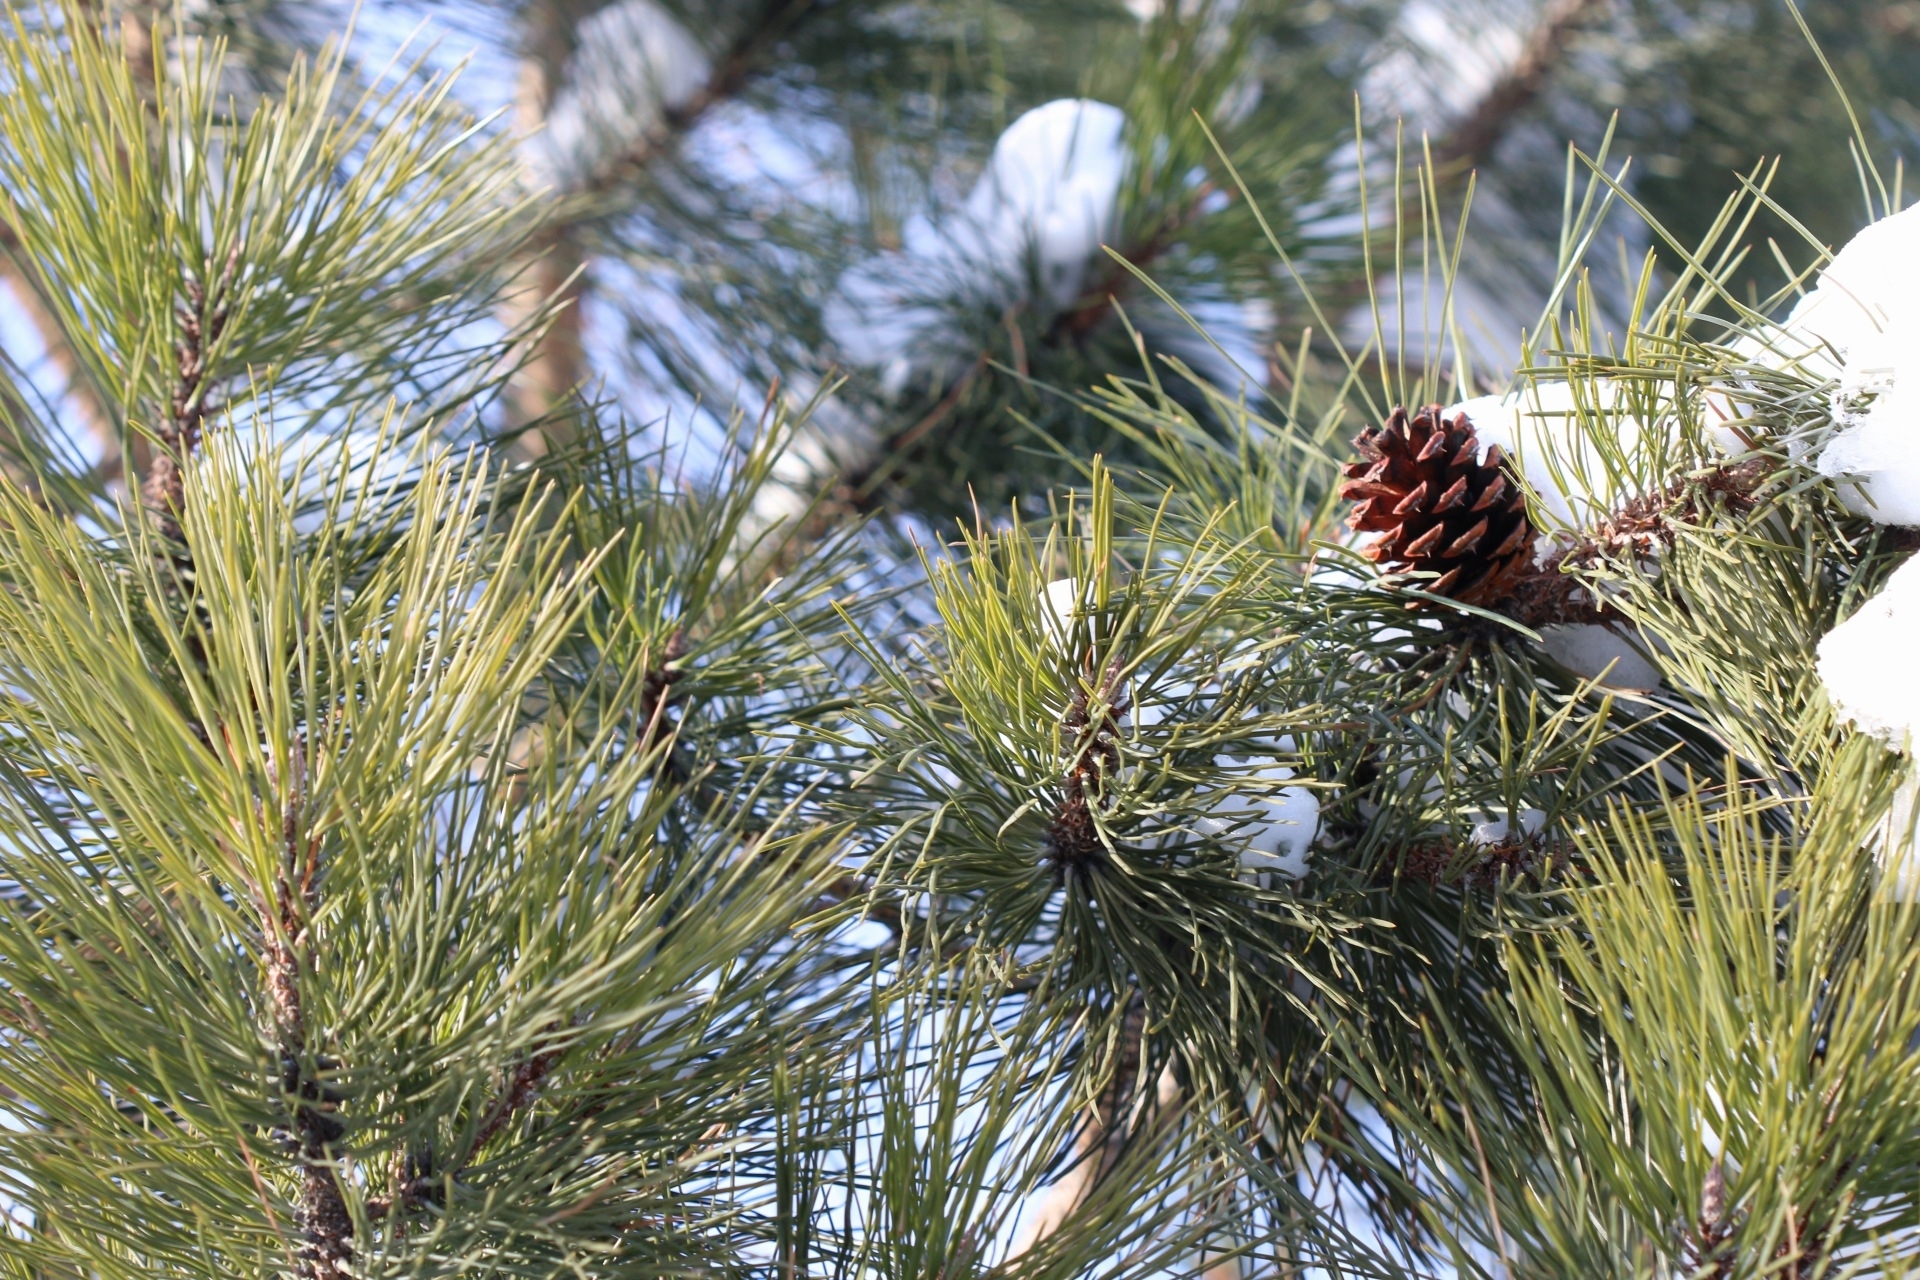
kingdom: Plantae
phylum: Tracheophyta
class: Pinopsida
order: Pinales
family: Pinaceae
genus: Pinus
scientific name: Pinus ponderosa
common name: Western yellow-pine
